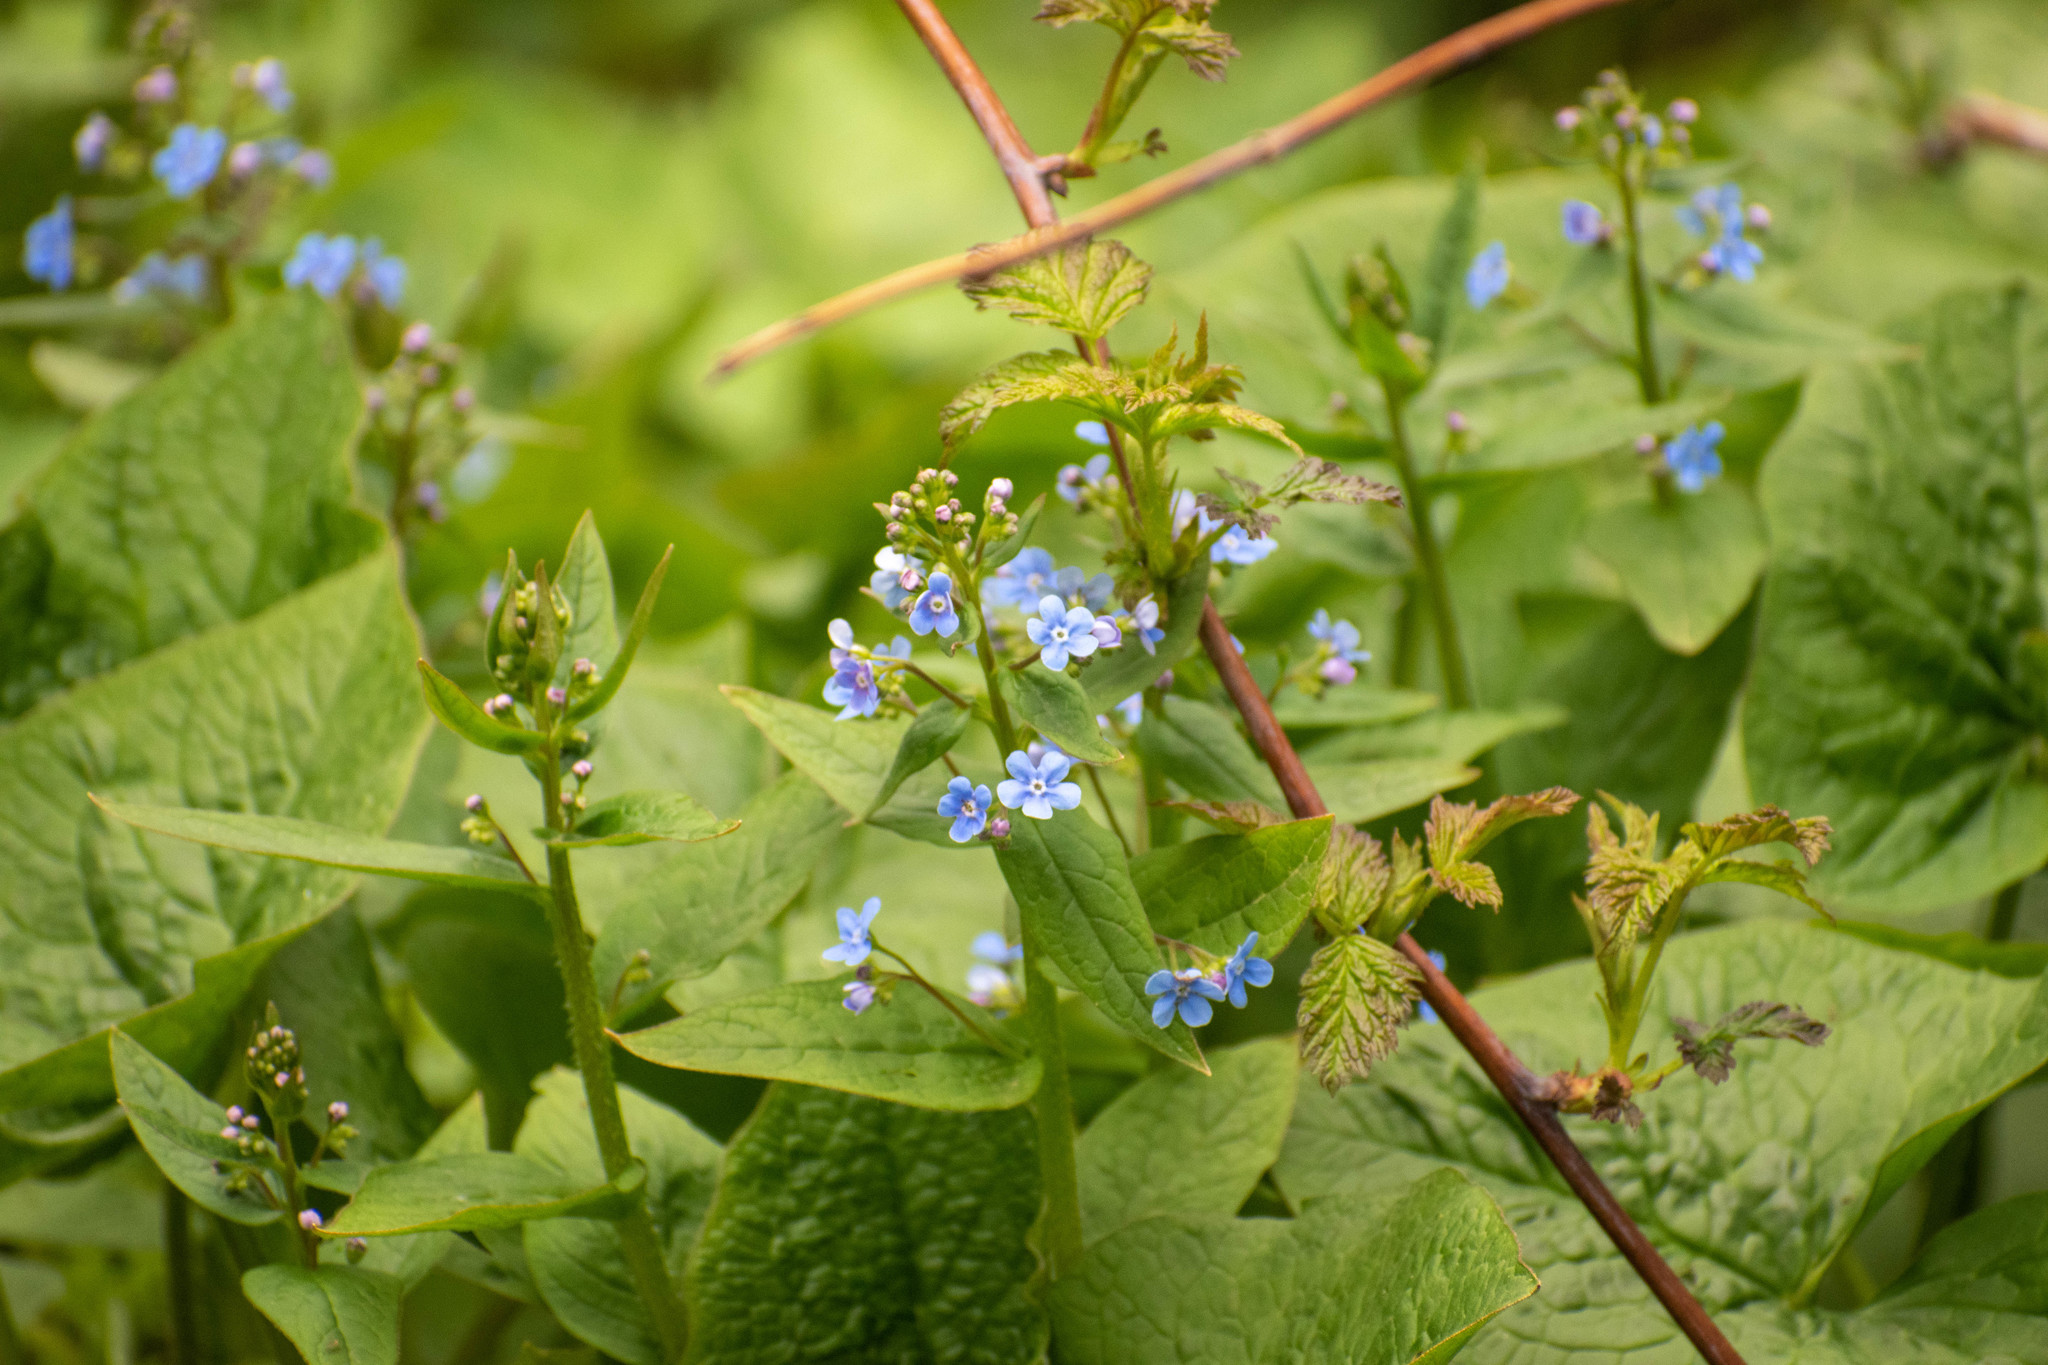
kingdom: Plantae
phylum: Tracheophyta
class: Magnoliopsida
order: Boraginales
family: Boraginaceae
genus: Brunnera
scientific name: Brunnera sibirica
